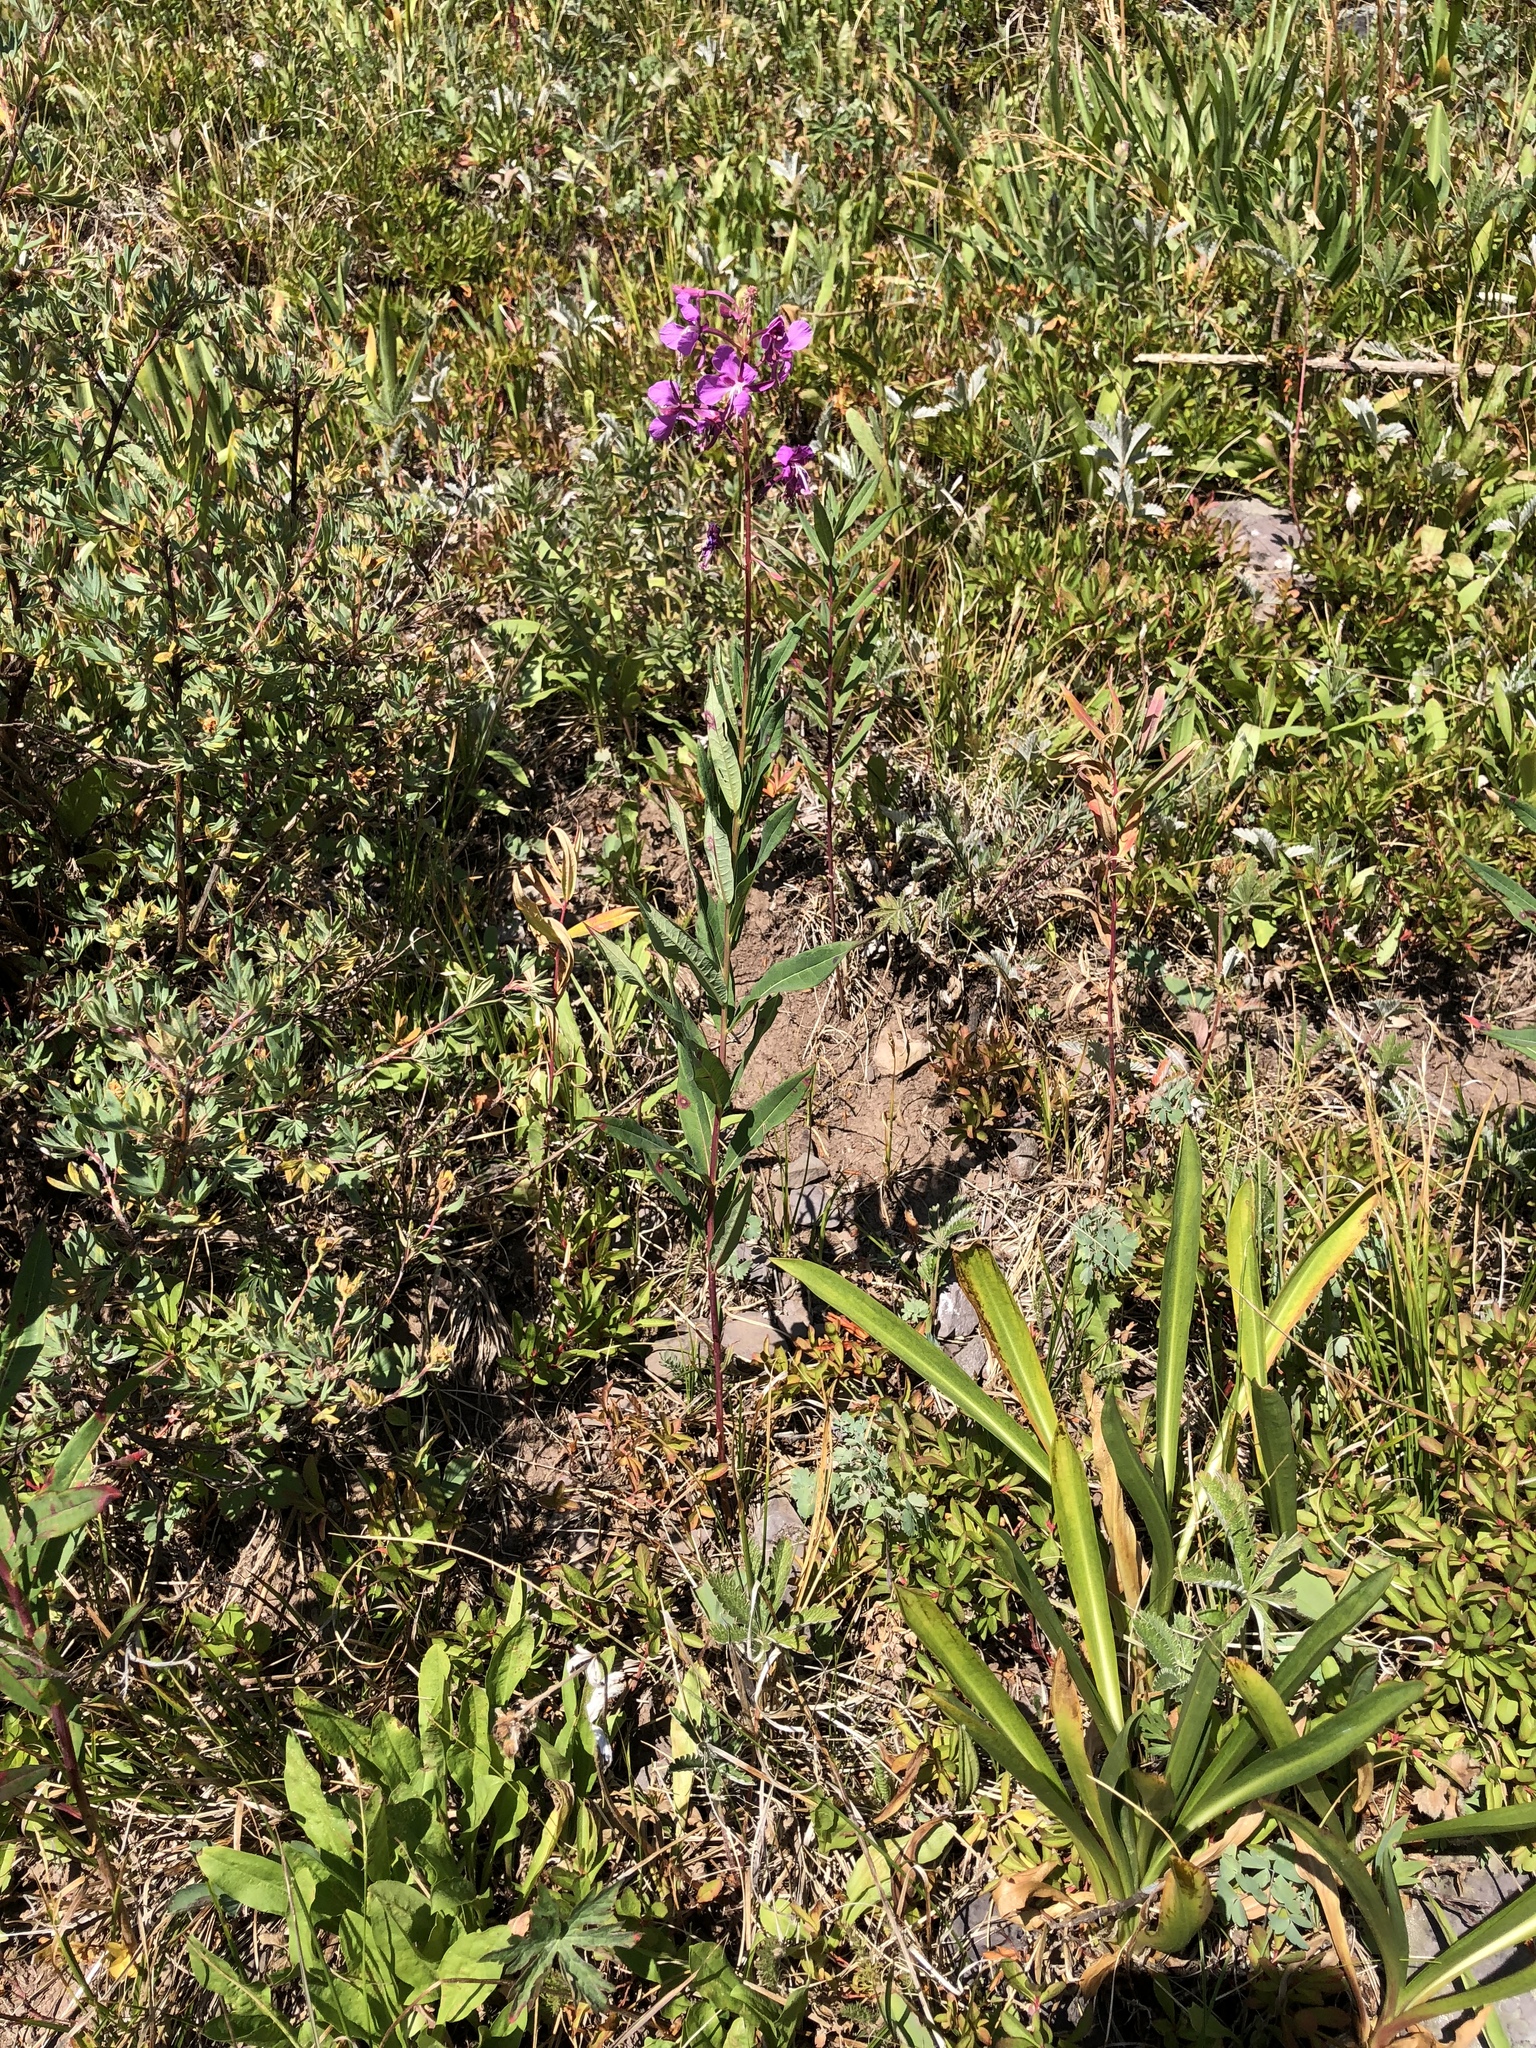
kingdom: Plantae
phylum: Tracheophyta
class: Magnoliopsida
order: Myrtales
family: Onagraceae
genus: Chamaenerion
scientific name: Chamaenerion angustifolium
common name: Fireweed
